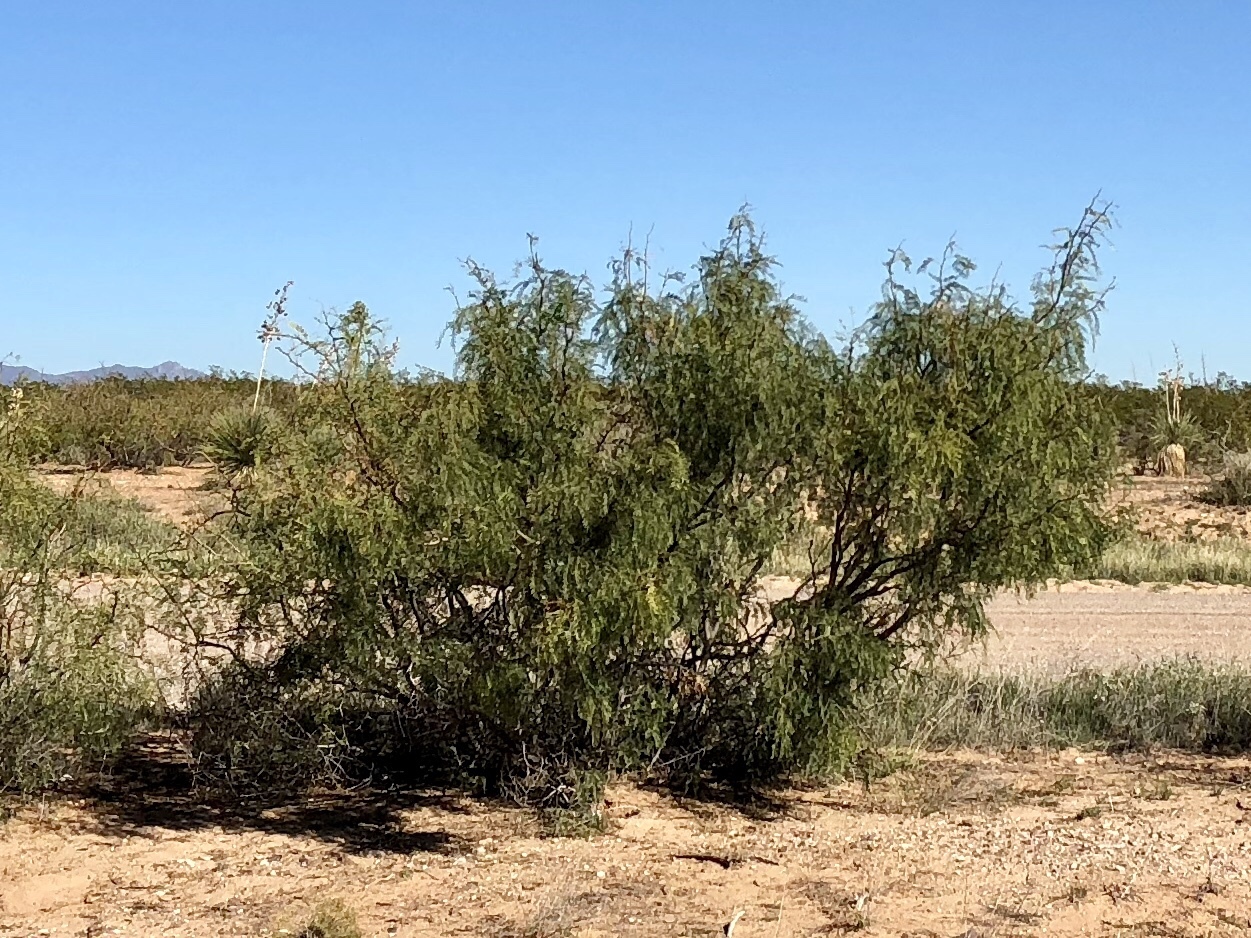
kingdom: Plantae
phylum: Tracheophyta
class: Magnoliopsida
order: Fabales
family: Fabaceae
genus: Prosopis
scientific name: Prosopis glandulosa
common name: Honey mesquite
